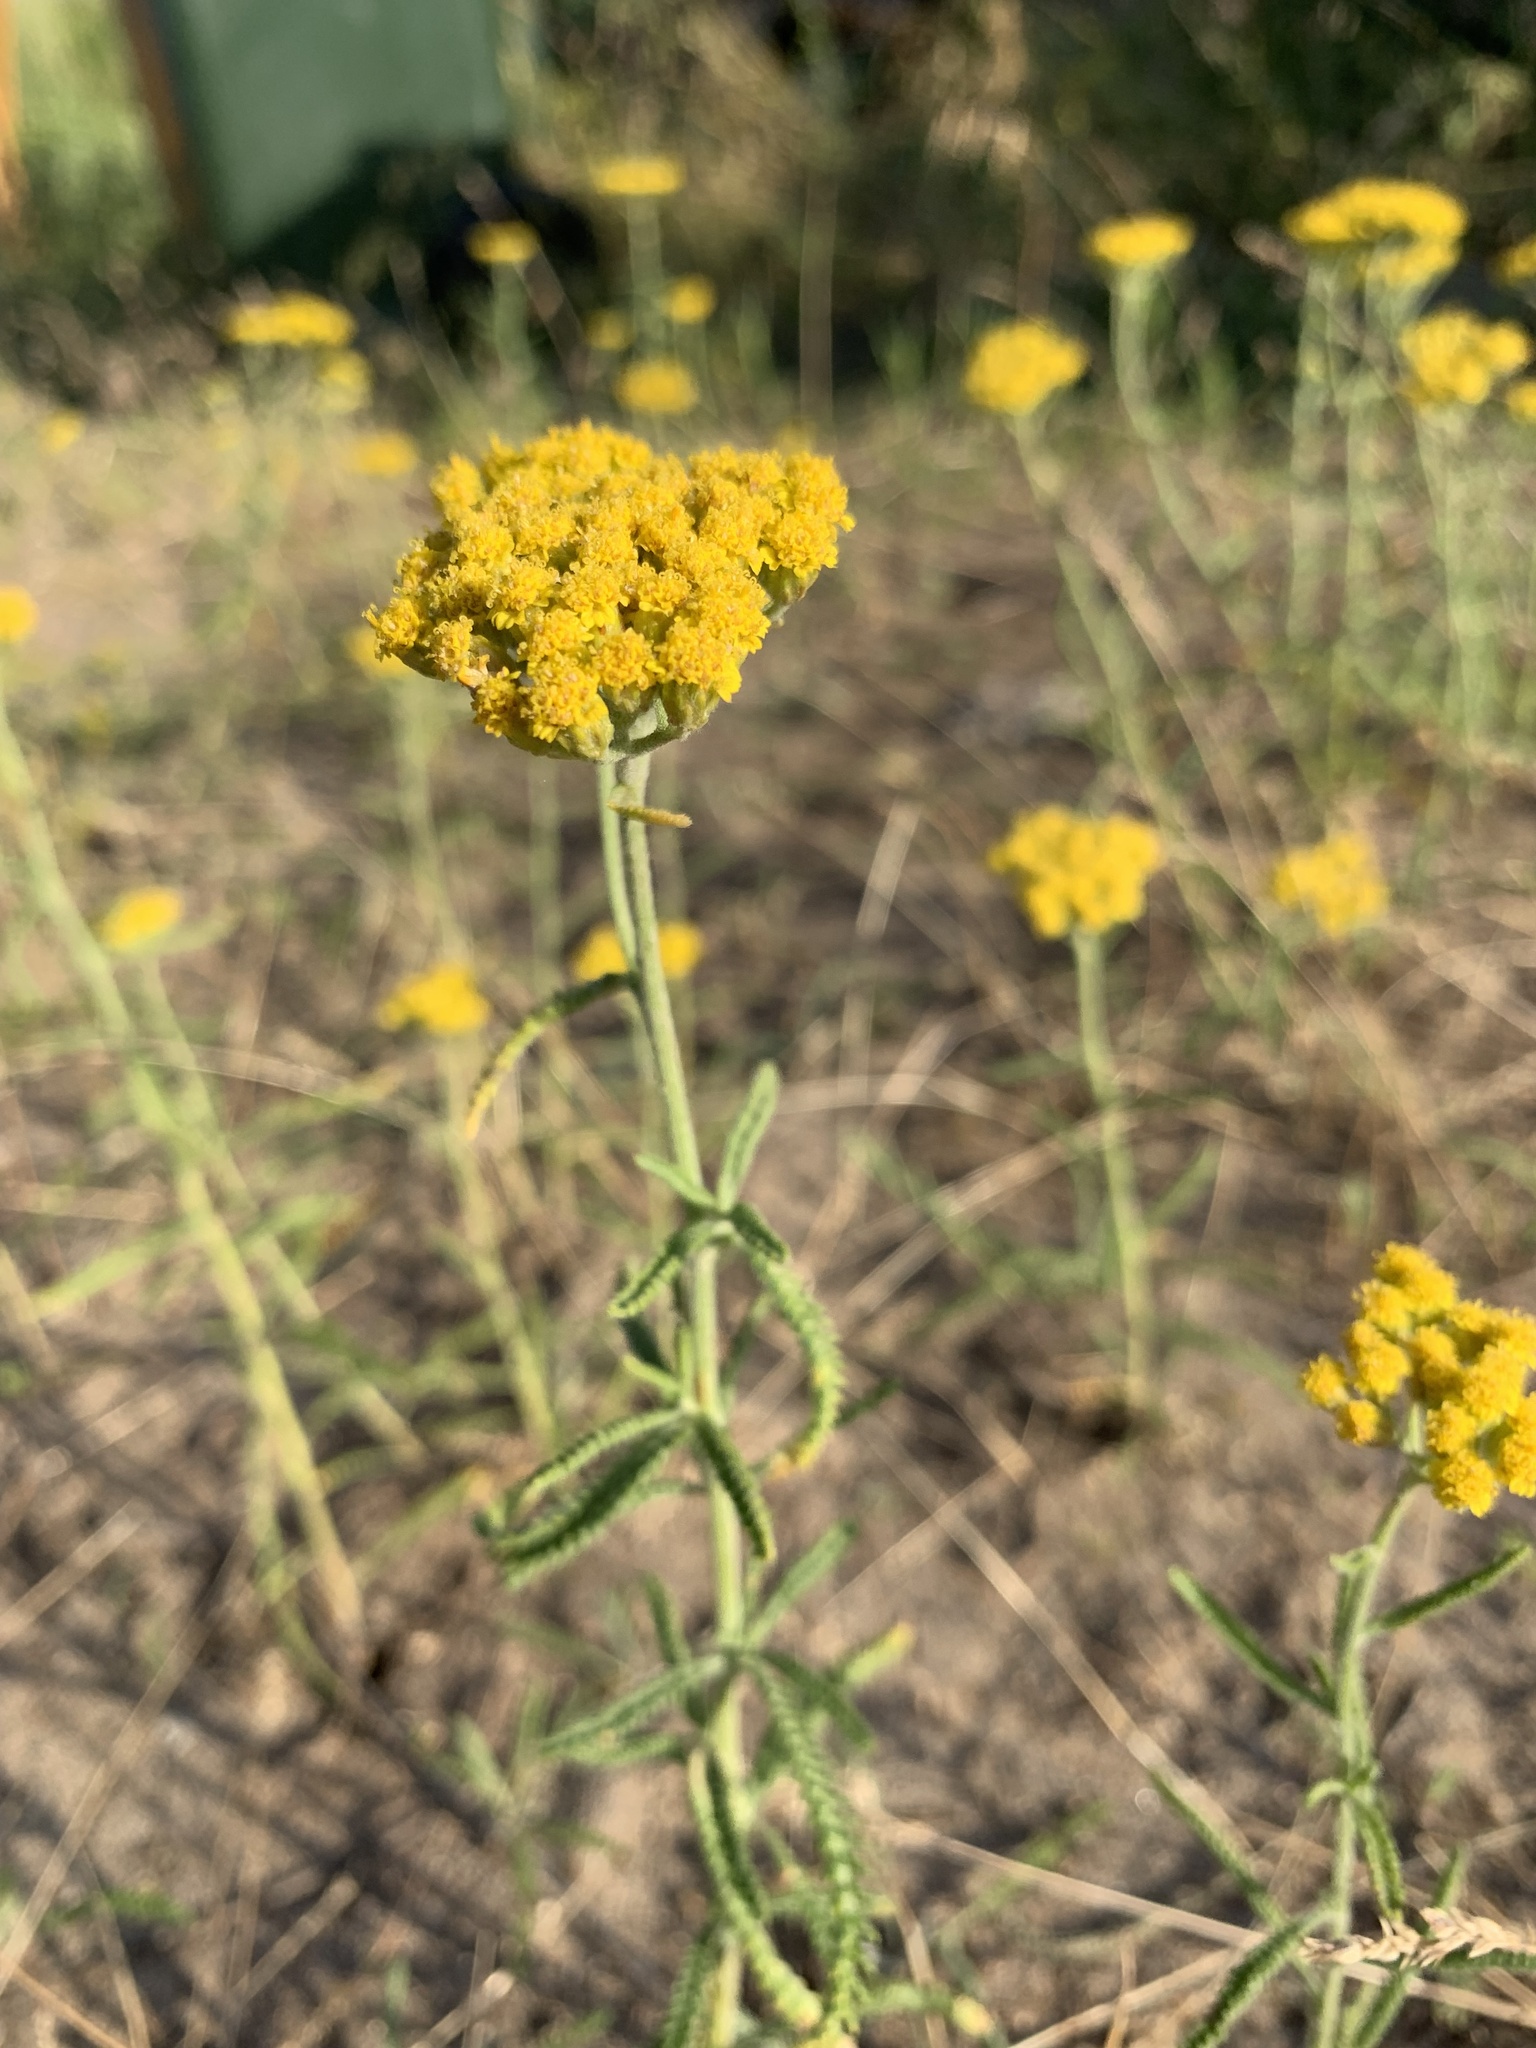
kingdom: Plantae
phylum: Tracheophyta
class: Magnoliopsida
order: Asterales
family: Asteraceae
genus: Achillea
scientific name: Achillea micrantha
